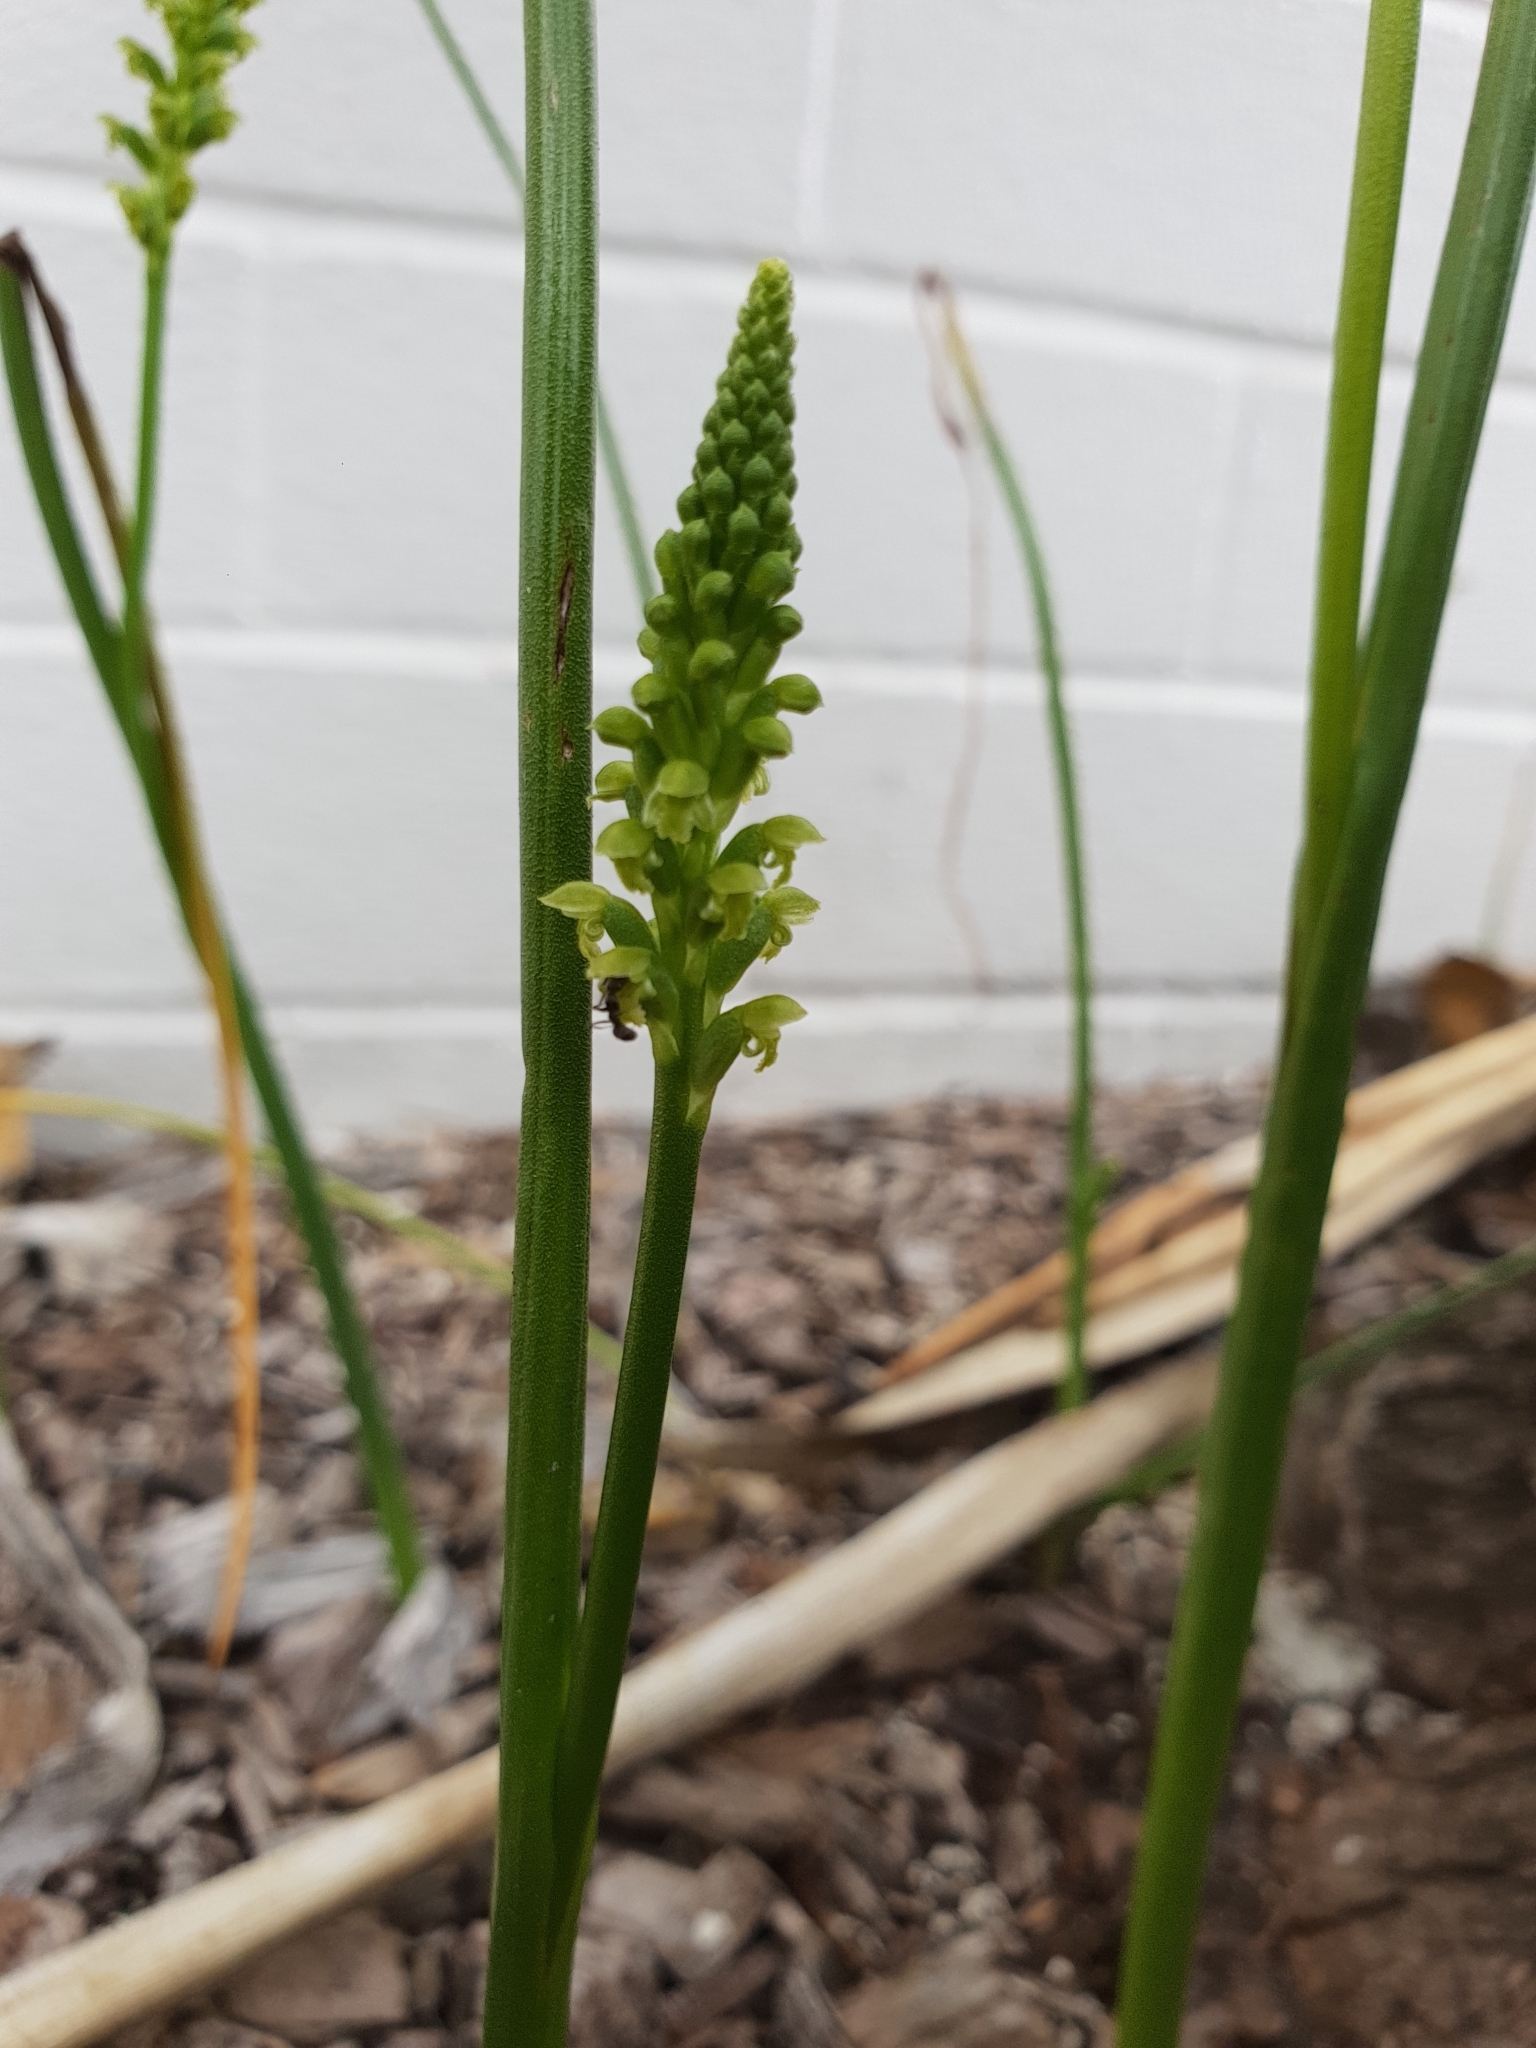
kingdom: Plantae
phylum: Tracheophyta
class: Liliopsida
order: Asparagales
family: Orchidaceae
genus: Microtis
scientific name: Microtis media
